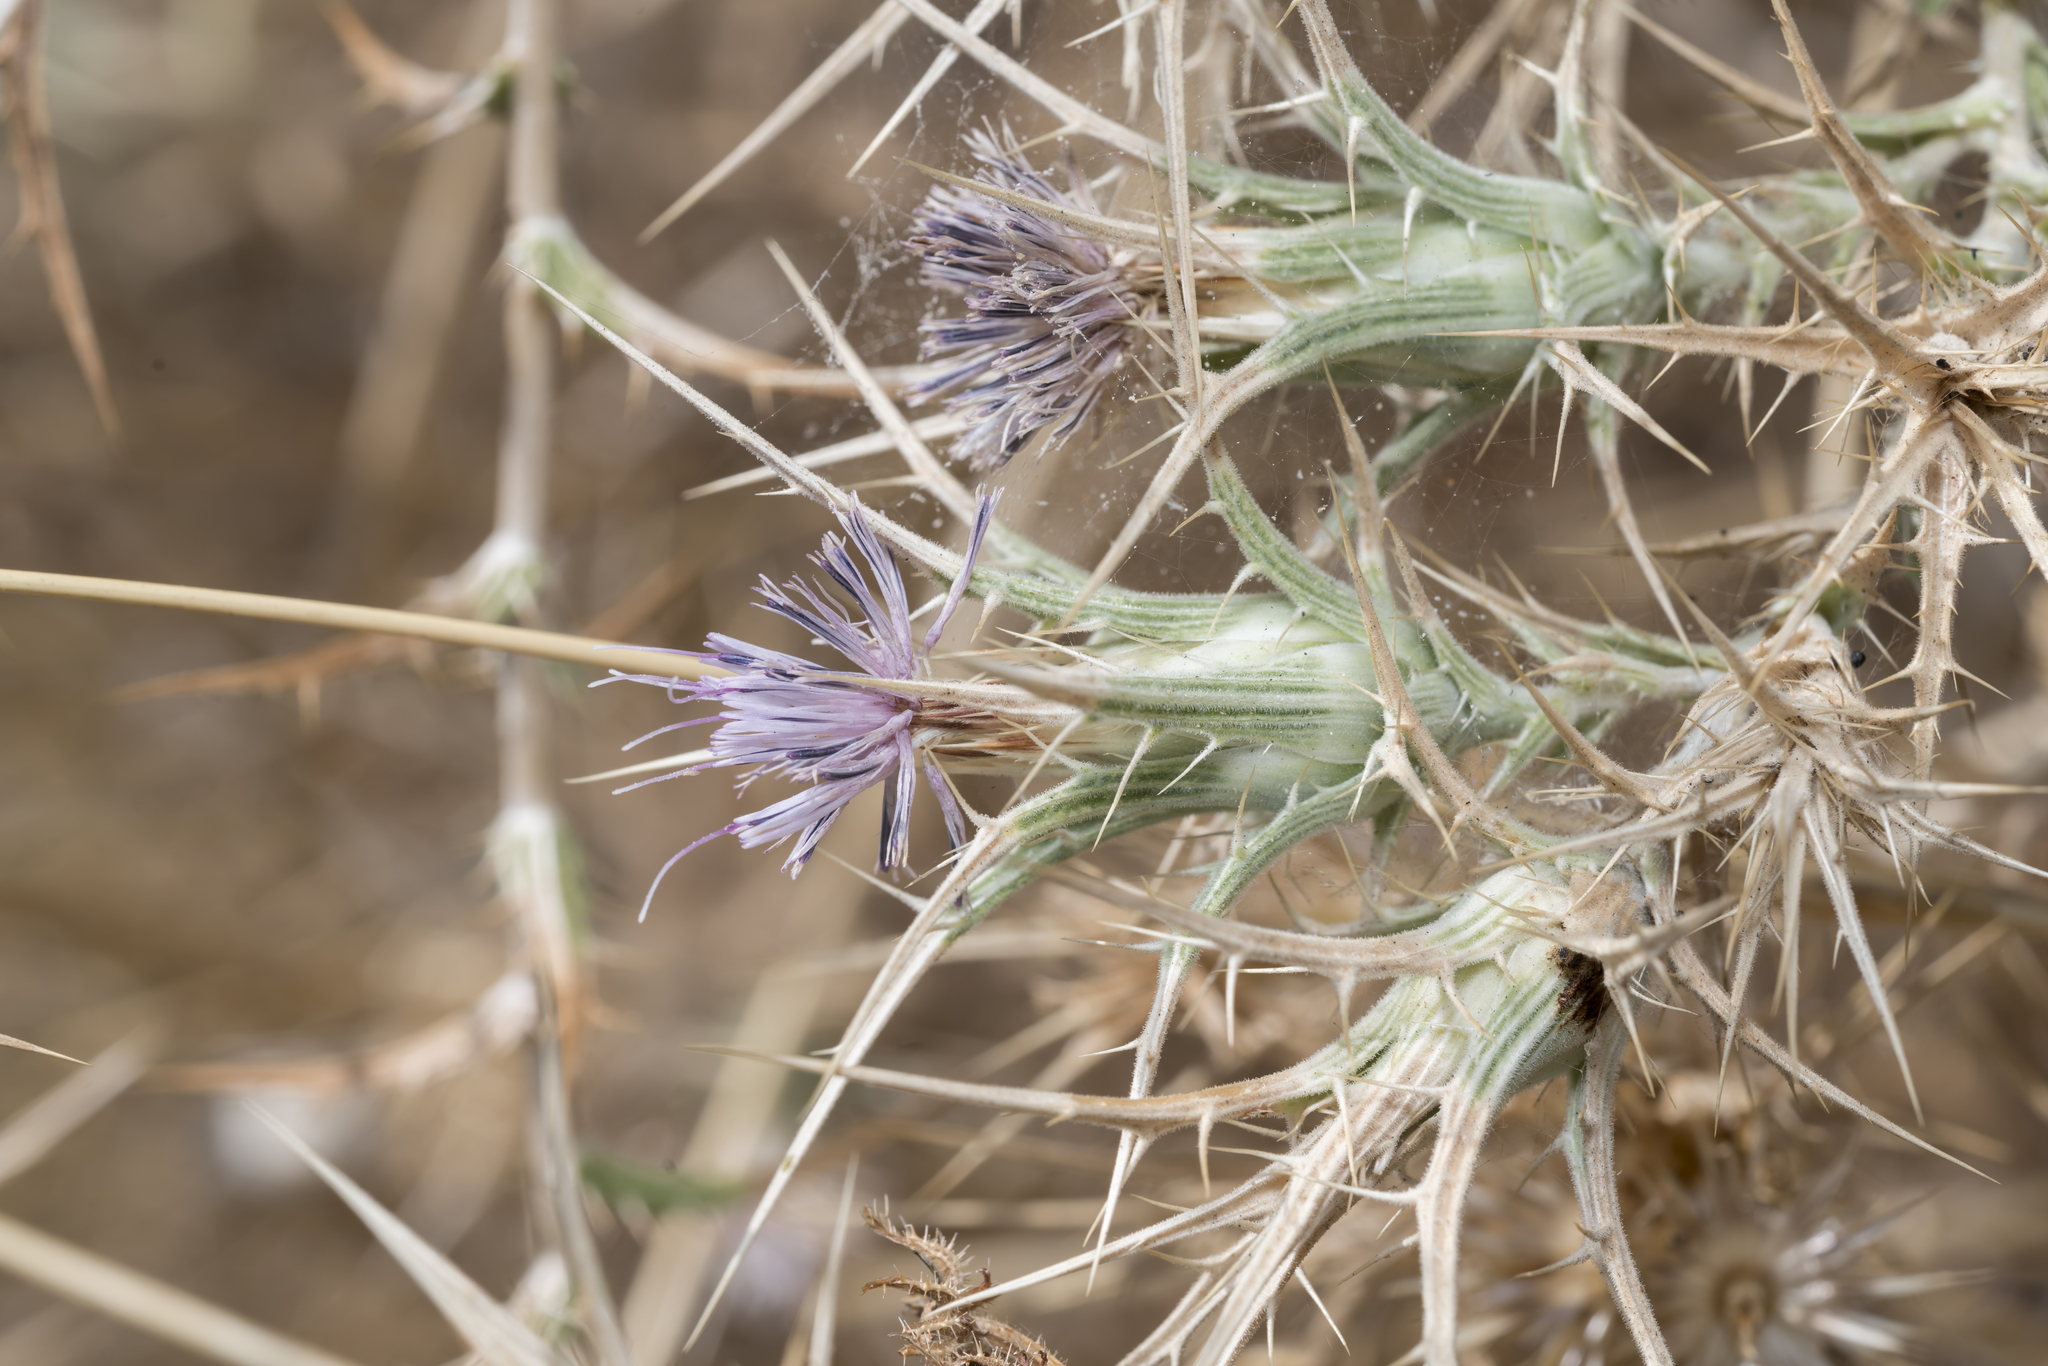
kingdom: Plantae
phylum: Tracheophyta
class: Magnoliopsida
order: Asterales
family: Asteraceae
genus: Carthamus
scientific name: Carthamus dentatus
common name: Toothed thistle
